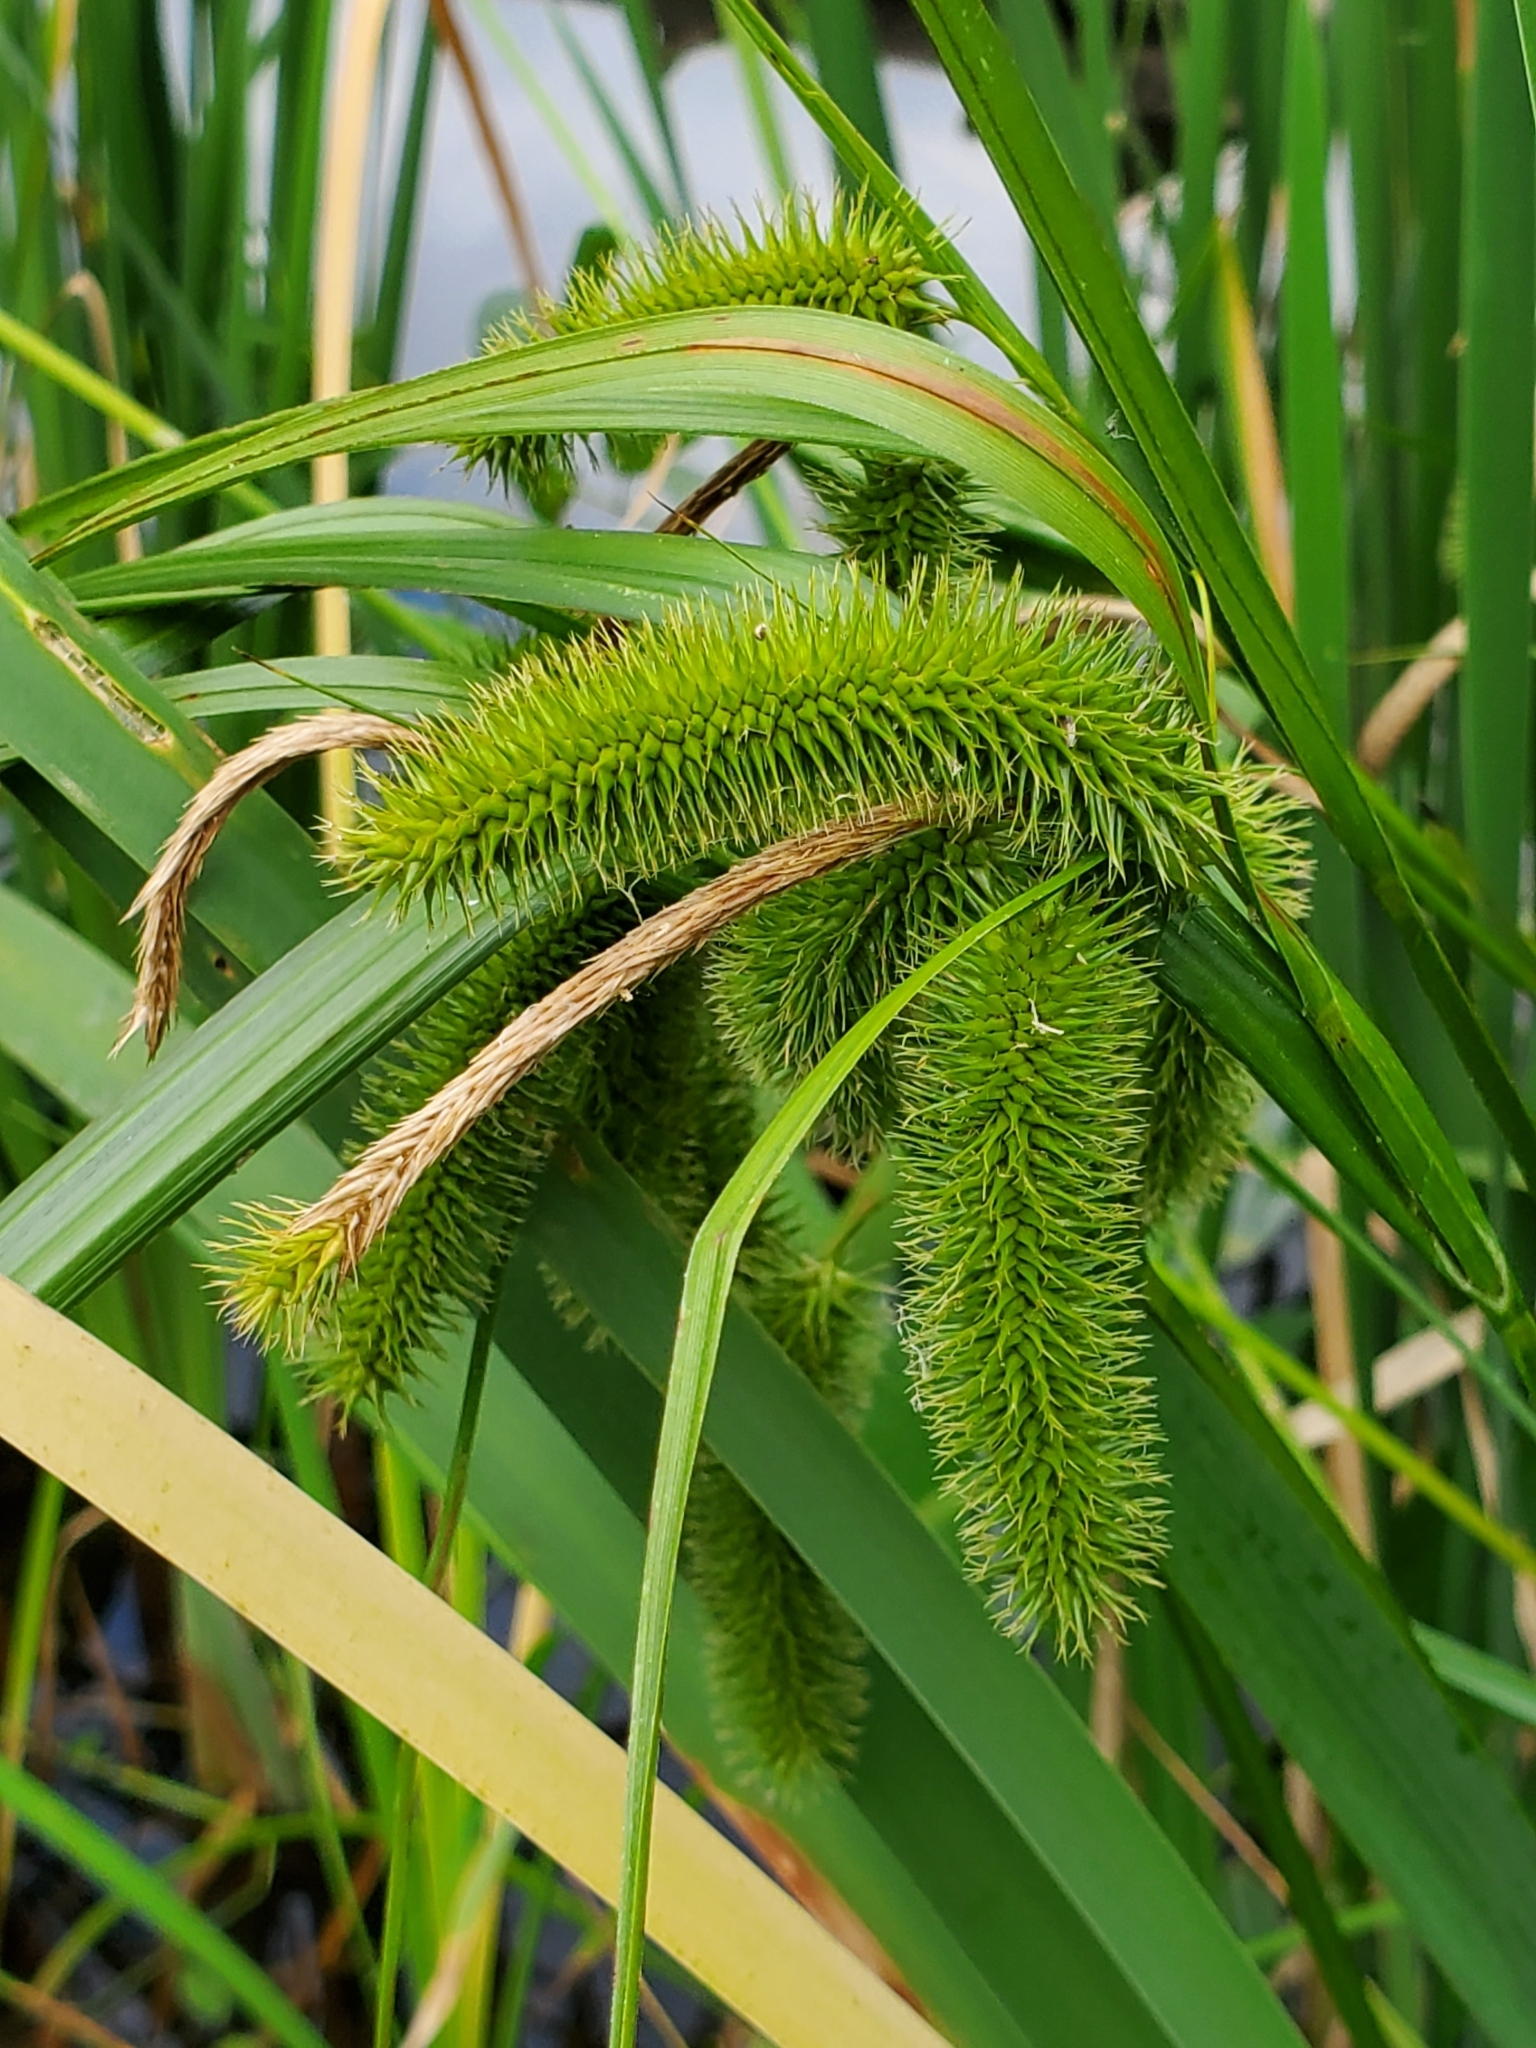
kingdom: Plantae
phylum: Tracheophyta
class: Liliopsida
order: Poales
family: Cyperaceae
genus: Carex
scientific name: Carex comosa
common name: Bristly sedge
